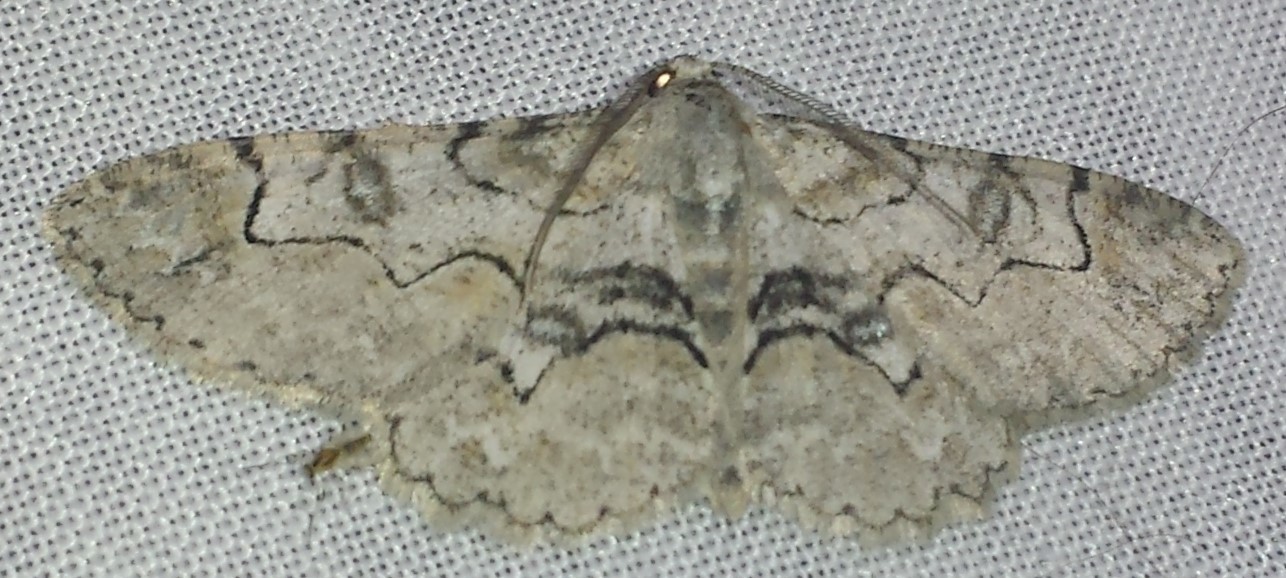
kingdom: Animalia
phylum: Arthropoda
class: Insecta
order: Lepidoptera
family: Geometridae
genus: Iridopsis
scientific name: Iridopsis larvaria
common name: Bent-line gray
